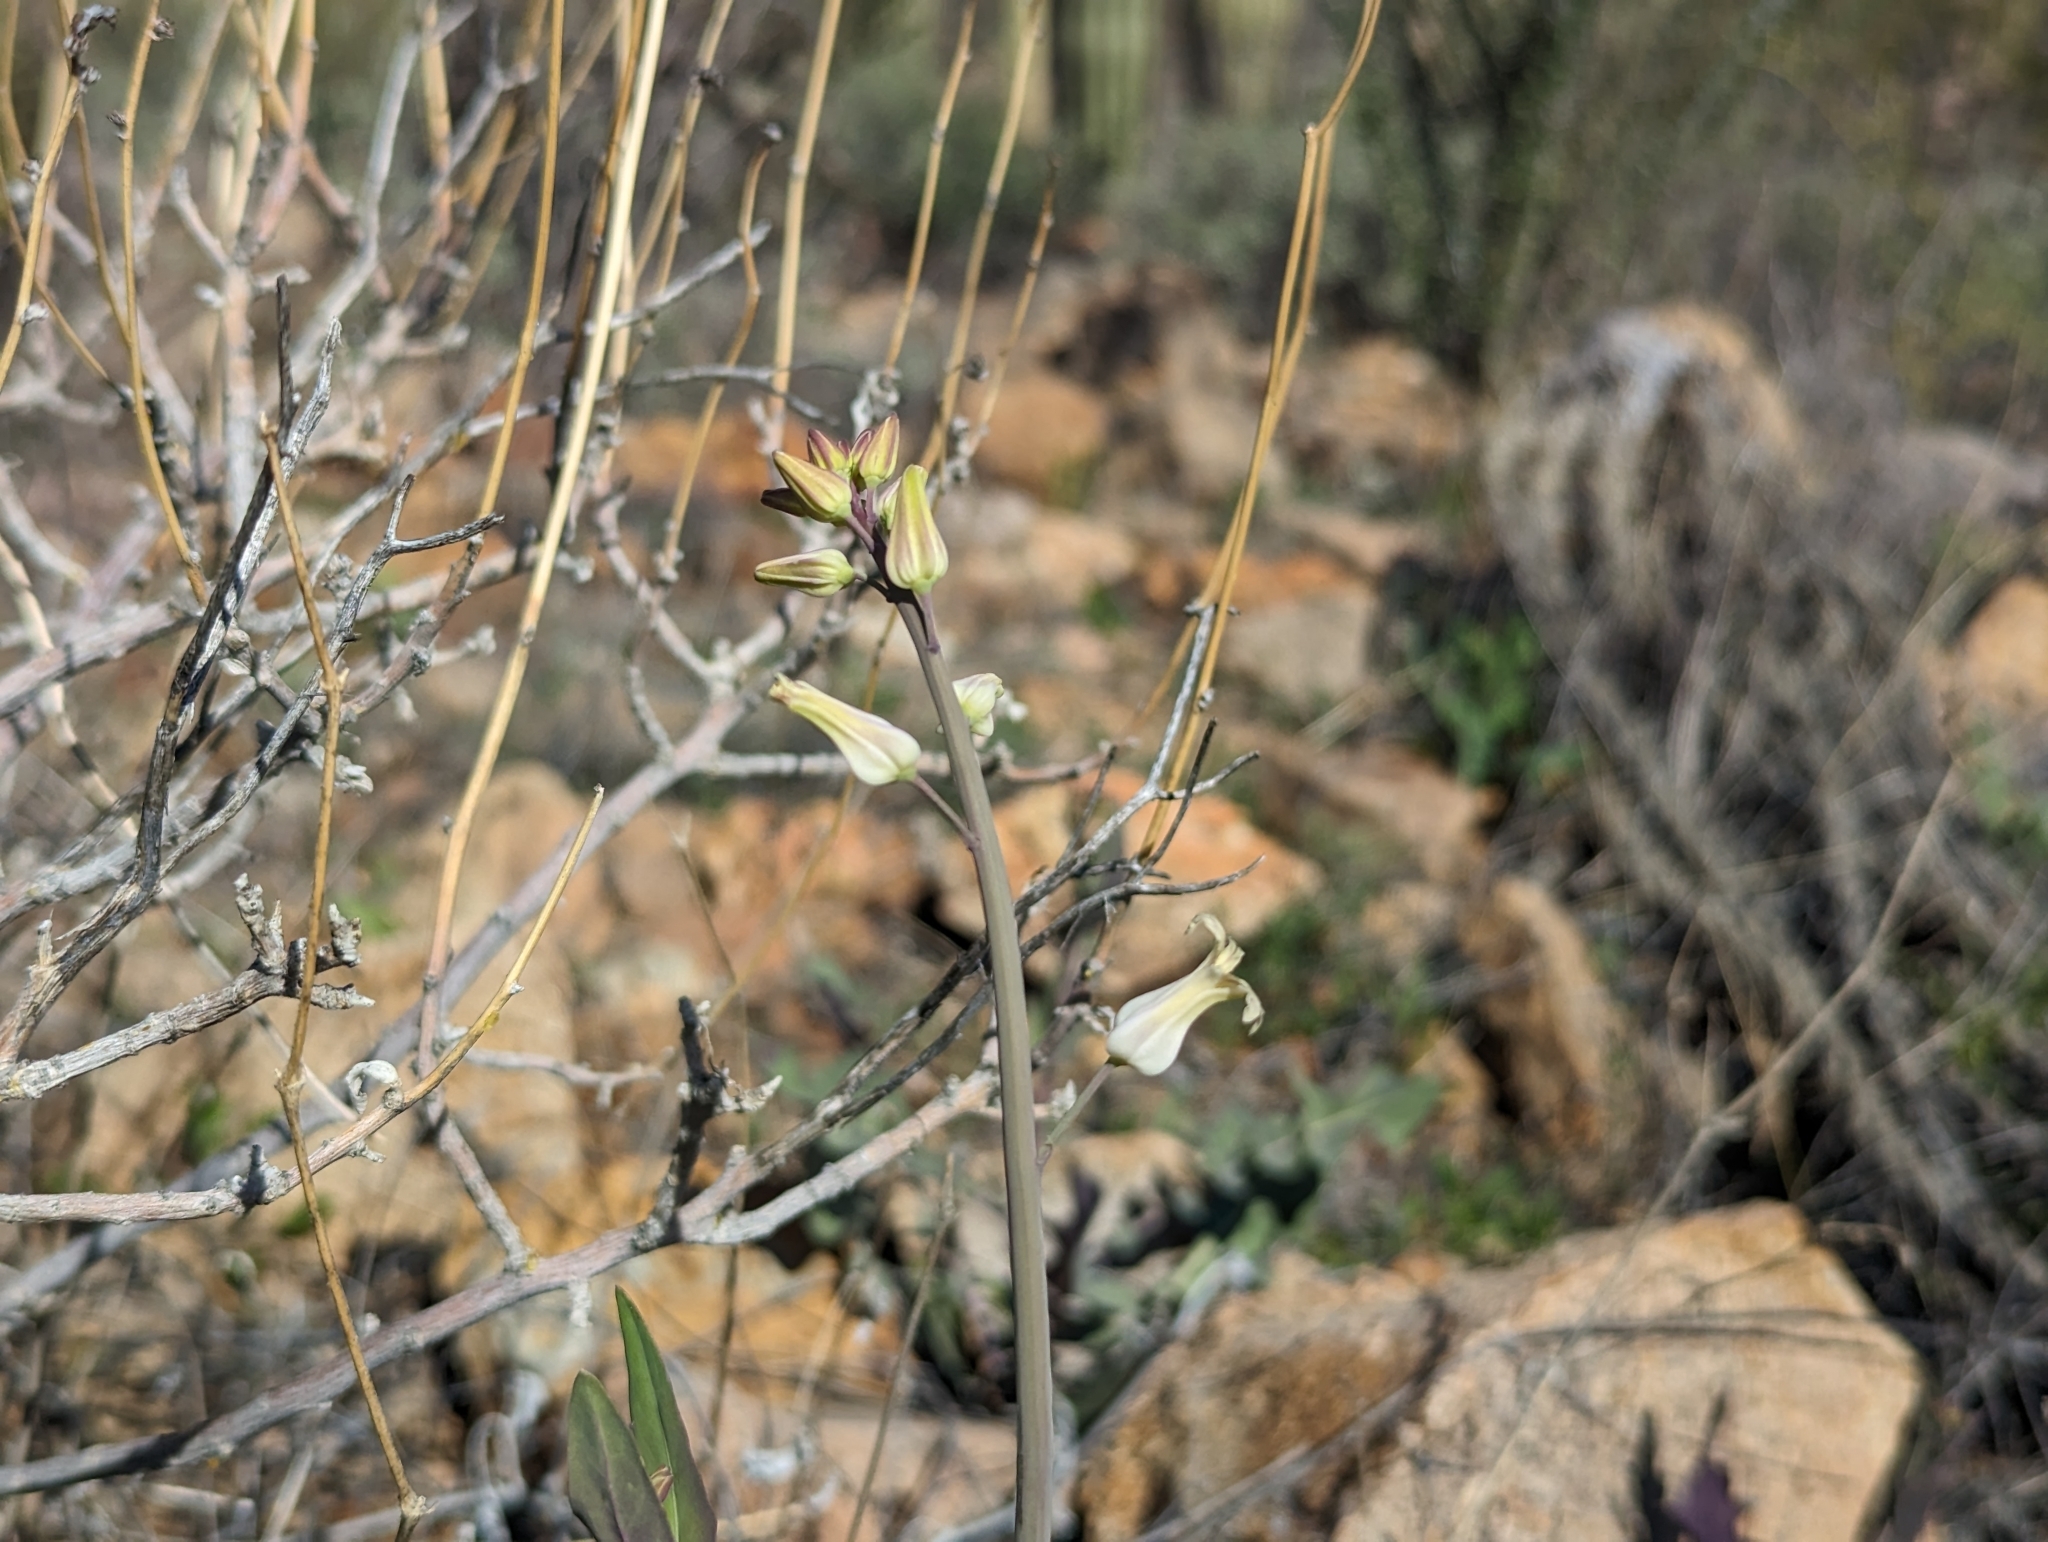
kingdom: Plantae
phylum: Tracheophyta
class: Magnoliopsida
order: Brassicales
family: Brassicaceae
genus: Streptanthus
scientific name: Streptanthus carinatus
